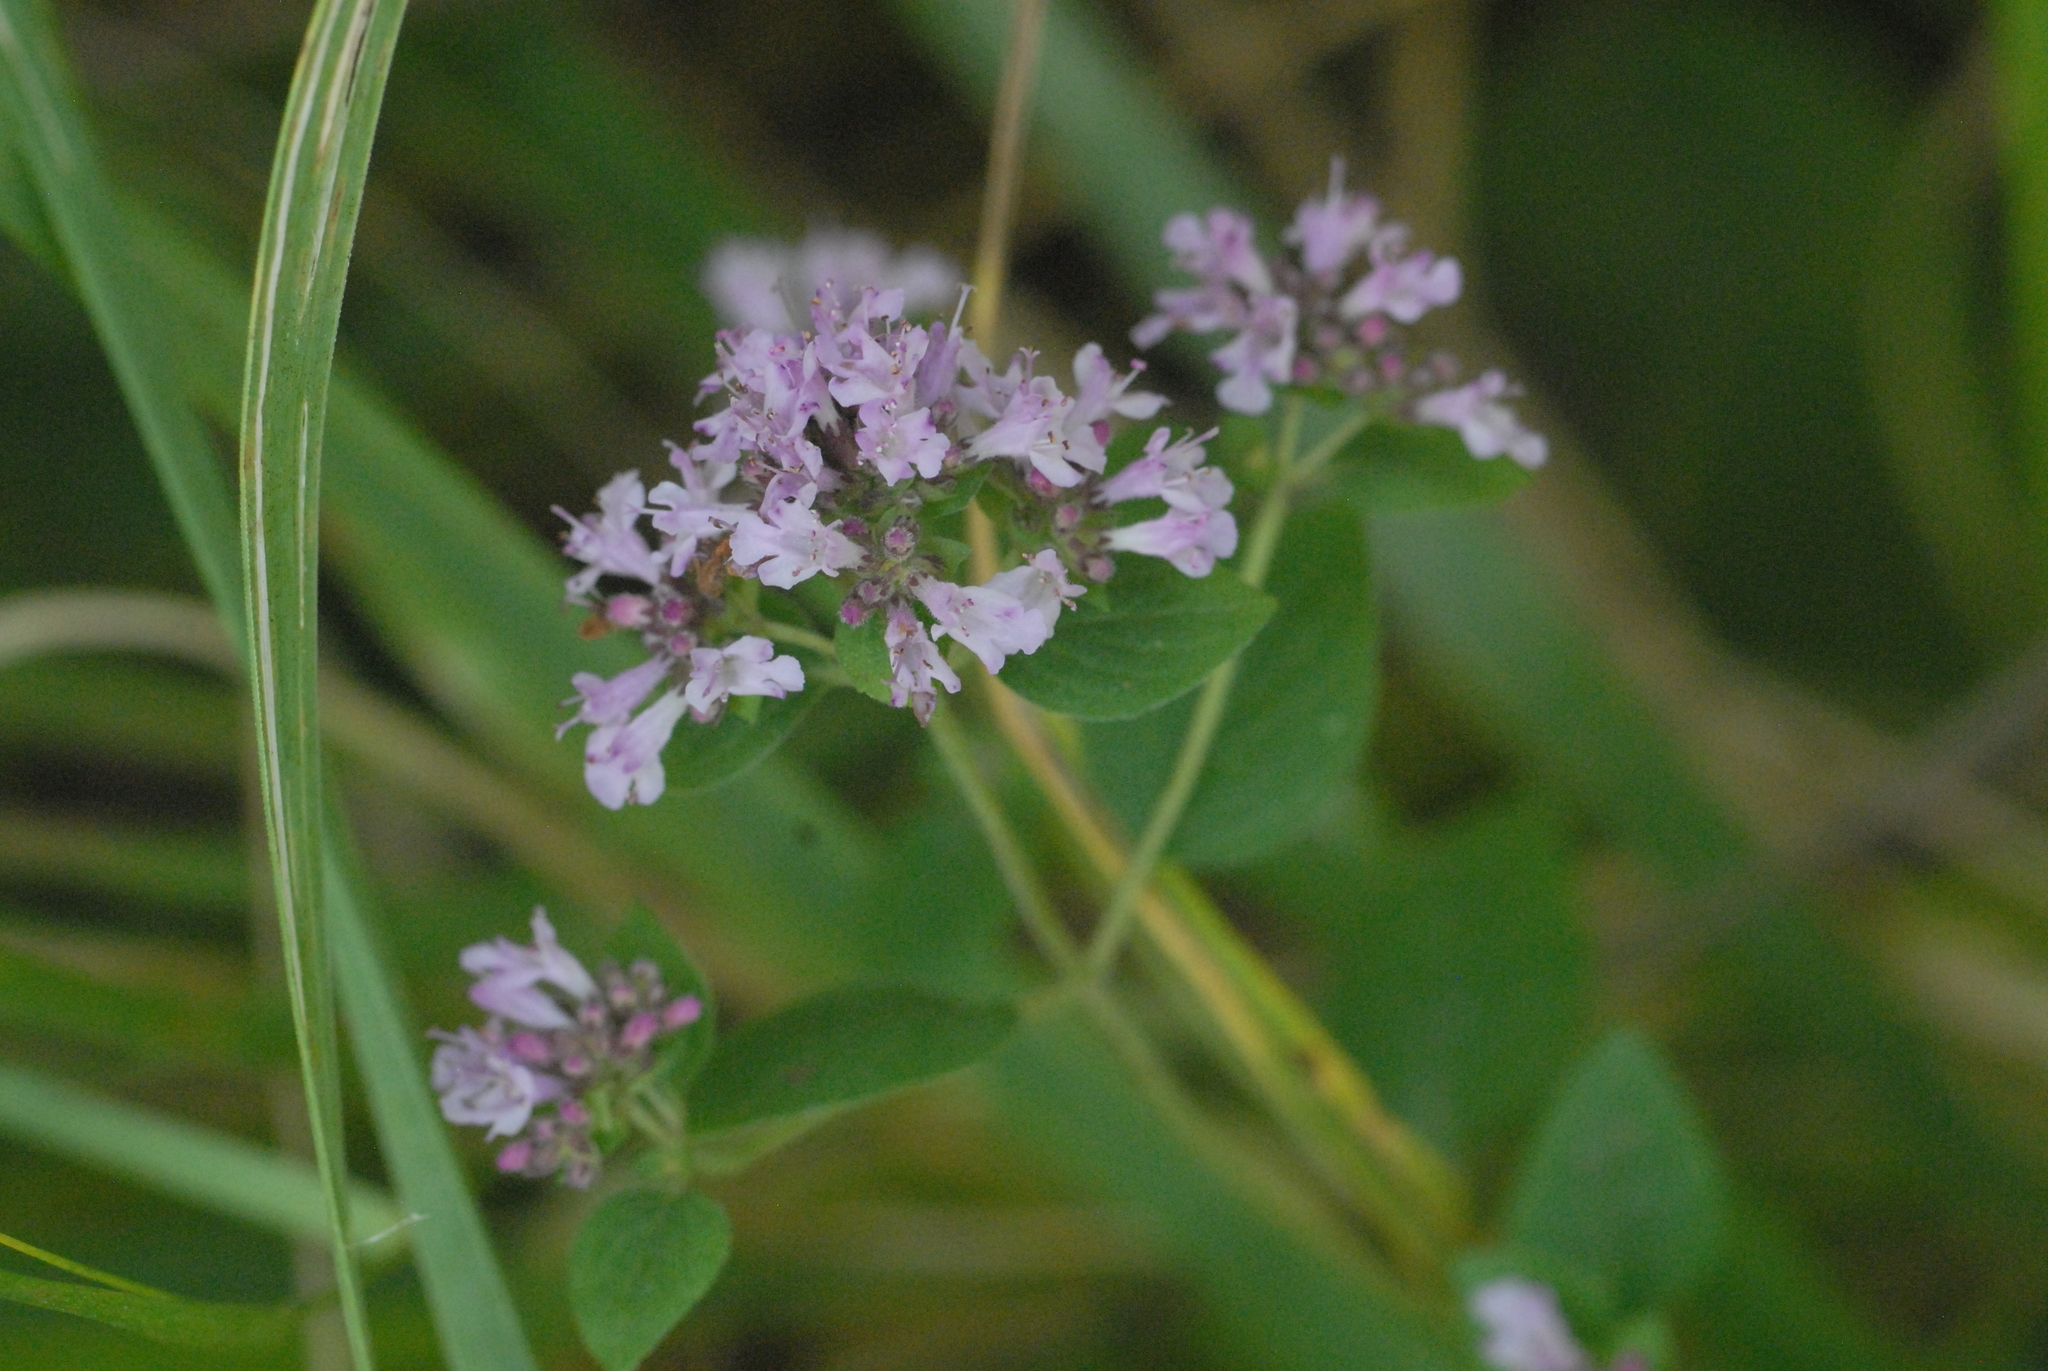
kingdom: Plantae
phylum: Tracheophyta
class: Magnoliopsida
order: Lamiales
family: Lamiaceae
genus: Origanum
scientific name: Origanum vulgare
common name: Wild marjoram
